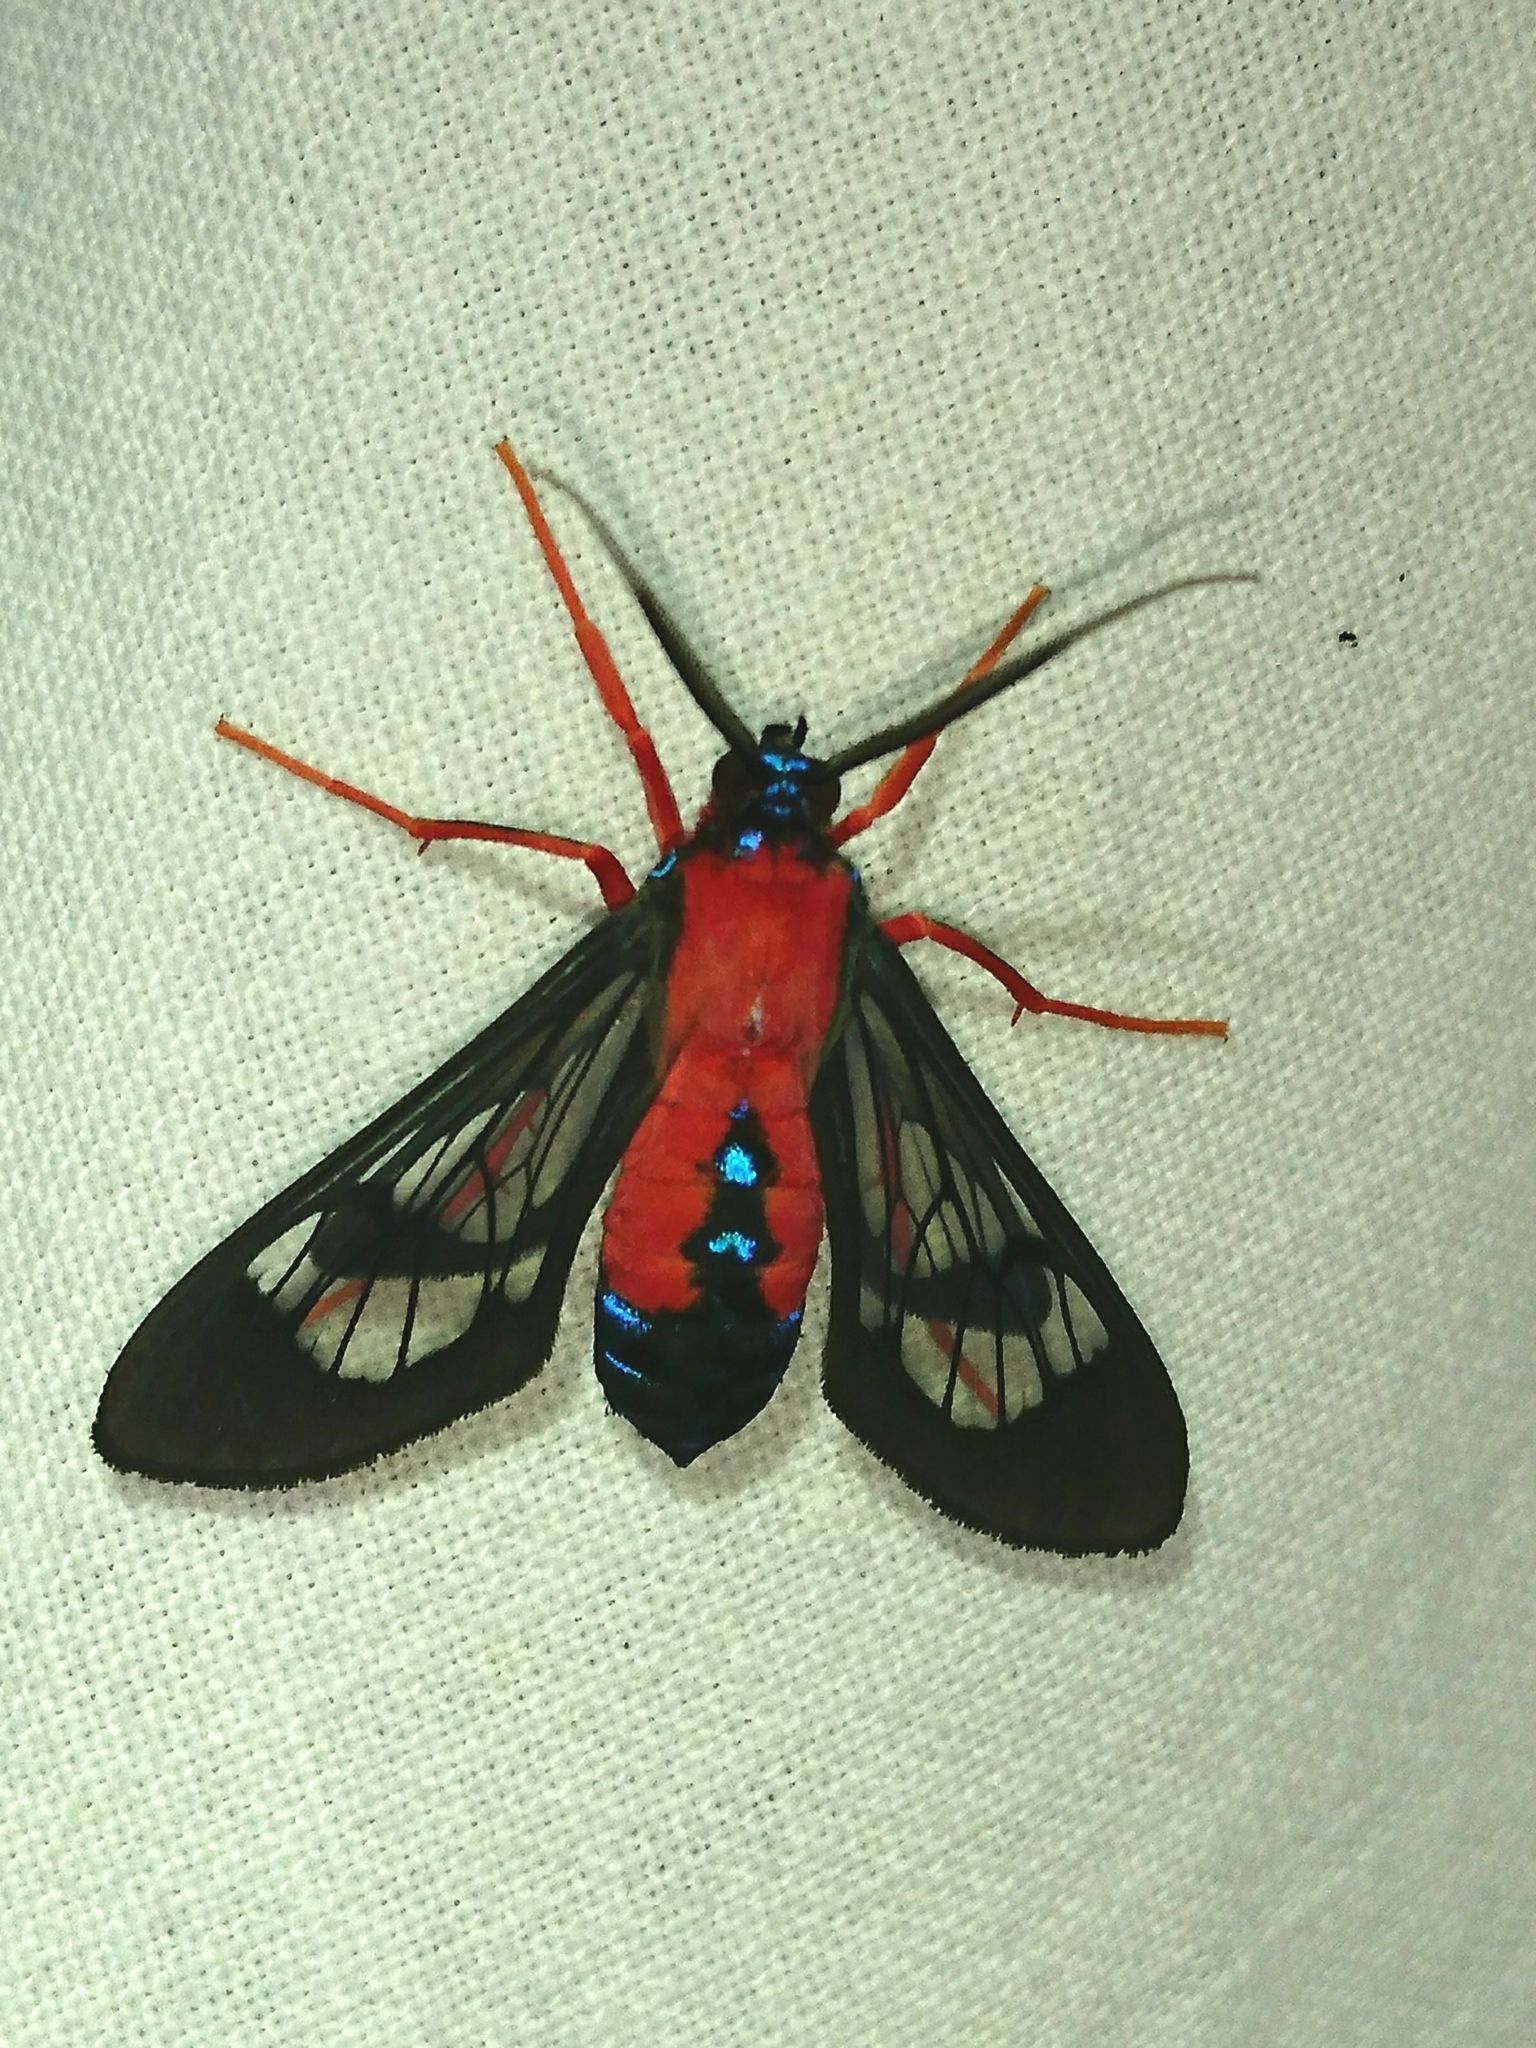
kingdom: Animalia
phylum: Arthropoda
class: Insecta
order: Lepidoptera
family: Erebidae
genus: Cosmosoma
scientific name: Cosmosoma myrodora
